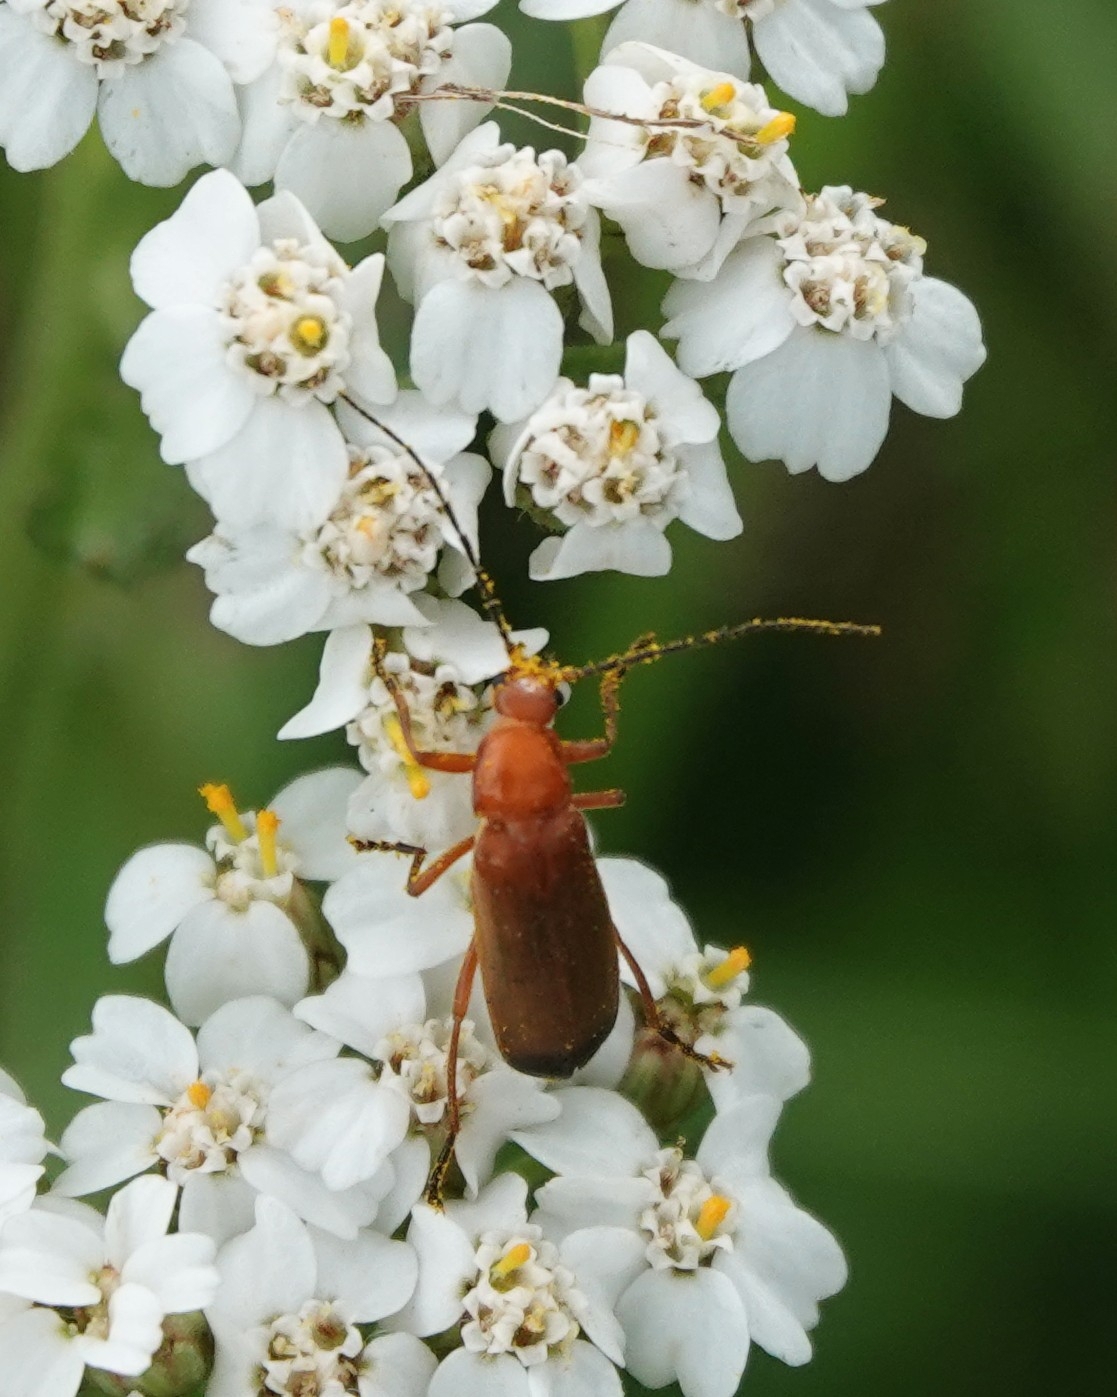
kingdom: Animalia
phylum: Arthropoda
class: Insecta
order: Coleoptera
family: Cantharidae
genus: Rhagonycha
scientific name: Rhagonycha fulva
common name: Common red soldier beetle
